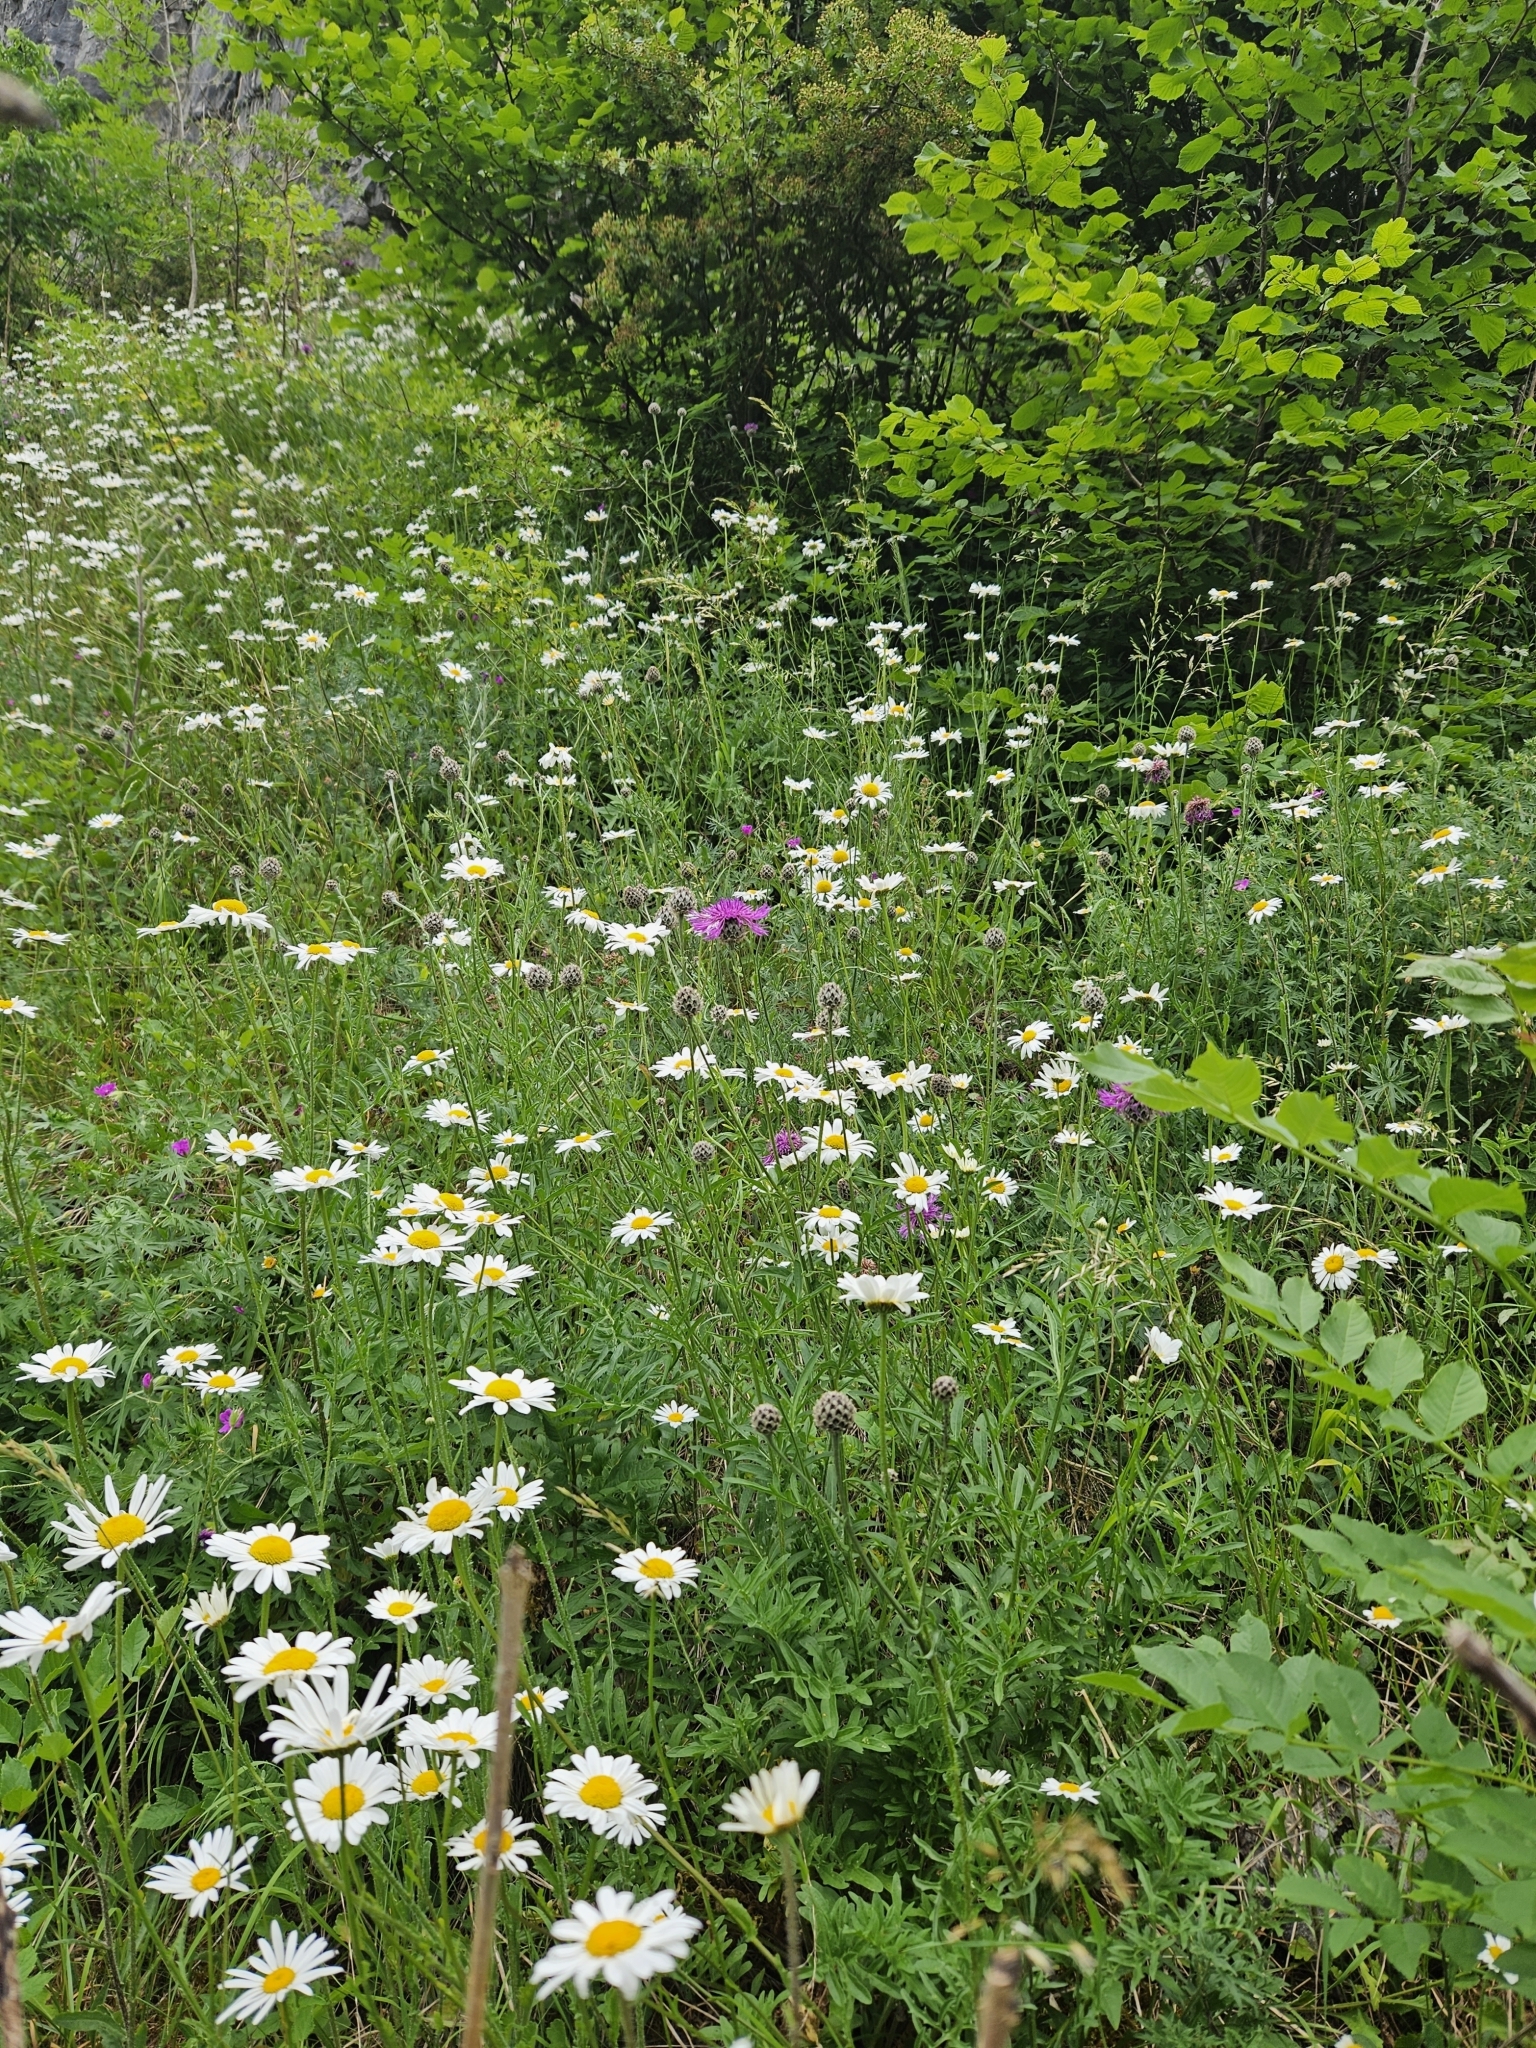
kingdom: Plantae
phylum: Tracheophyta
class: Magnoliopsida
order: Asterales
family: Asteraceae
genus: Leucanthemum
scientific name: Leucanthemum vulgare
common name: Oxeye daisy
